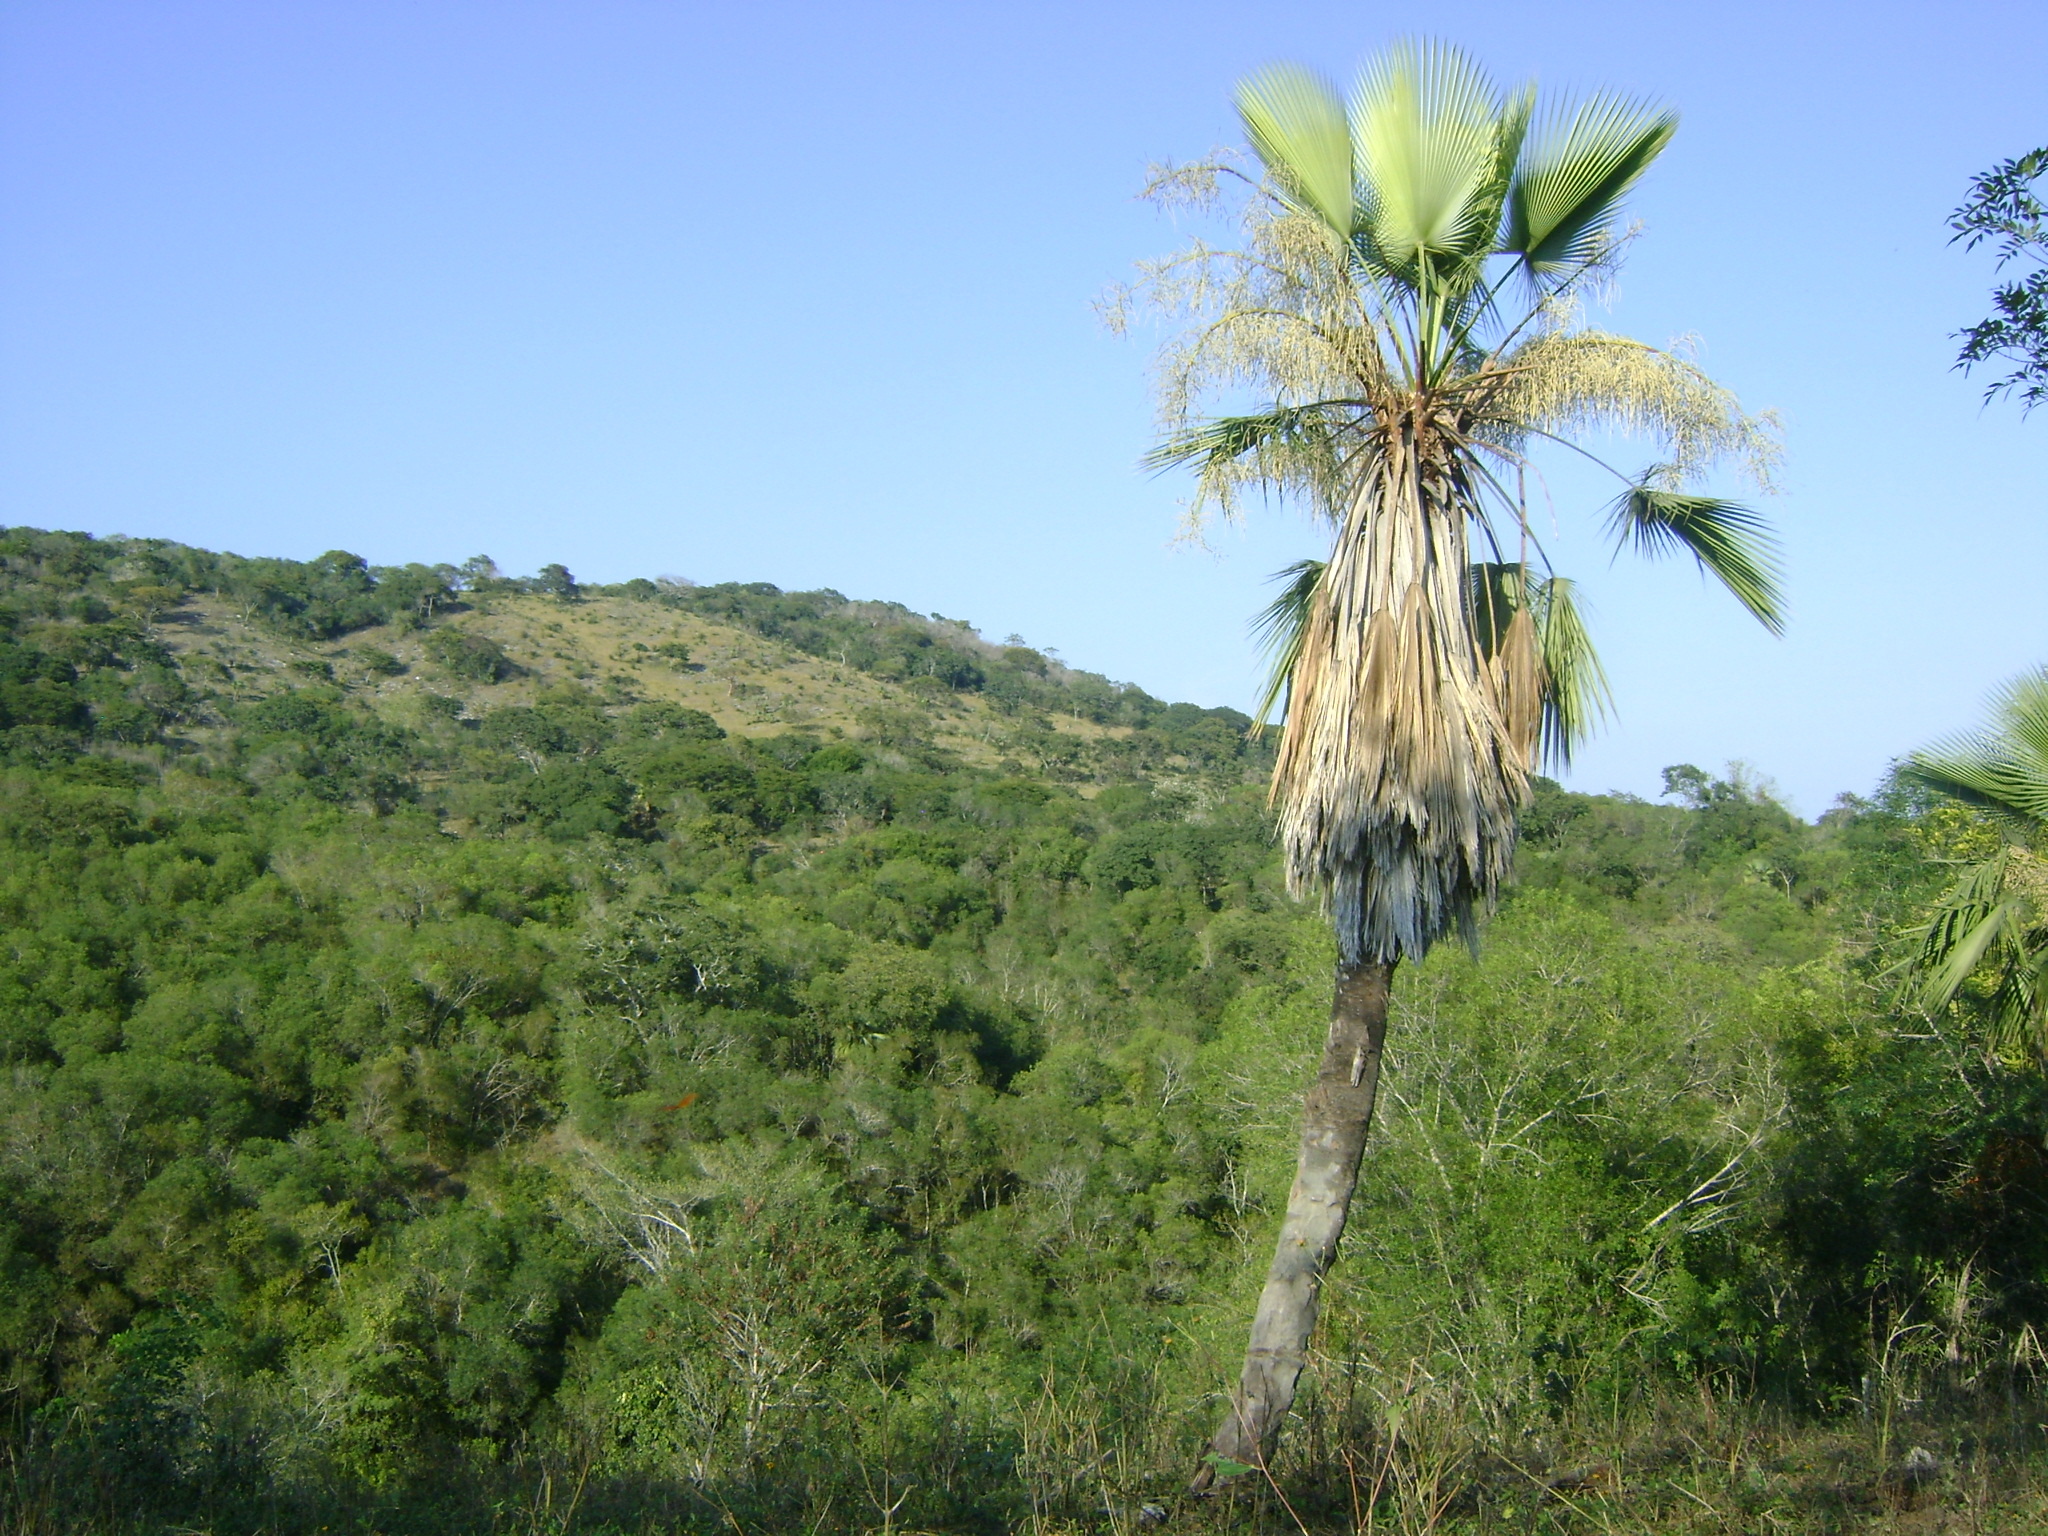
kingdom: Plantae
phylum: Tracheophyta
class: Liliopsida
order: Arecales
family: Arecaceae
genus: Brahea
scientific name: Brahea dulcis
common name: Apak palm
